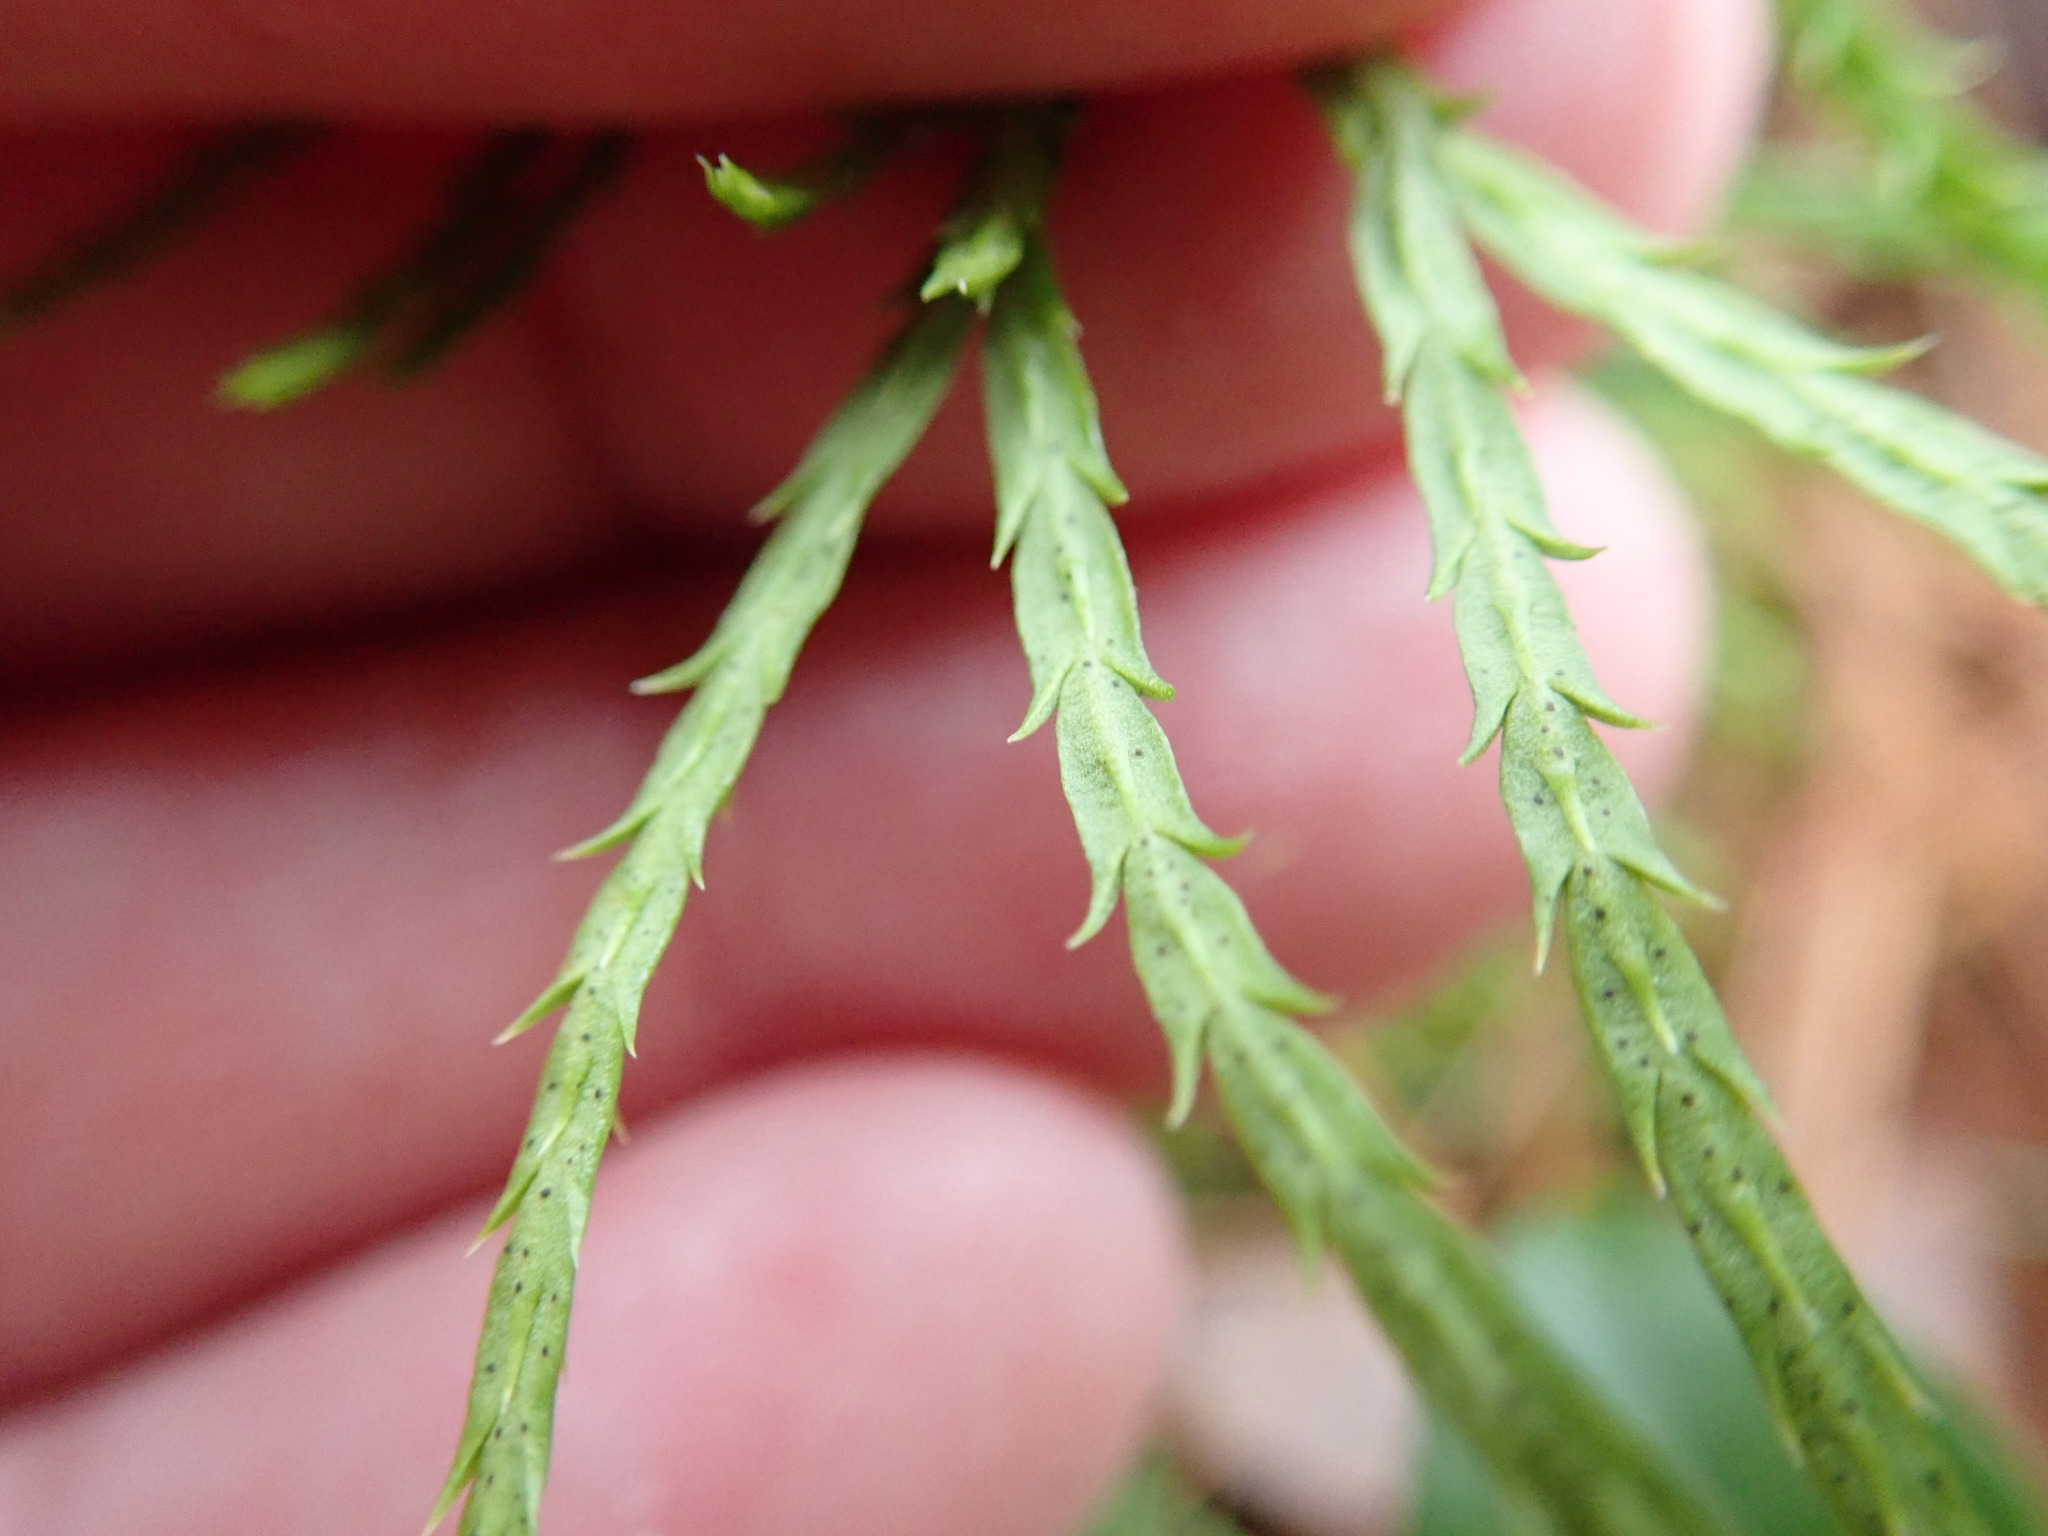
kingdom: Plantae
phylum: Tracheophyta
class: Lycopodiopsida
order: Lycopodiales
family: Lycopodiaceae
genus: Diphasiastrum
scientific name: Diphasiastrum digitatum
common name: Southern running-pine
